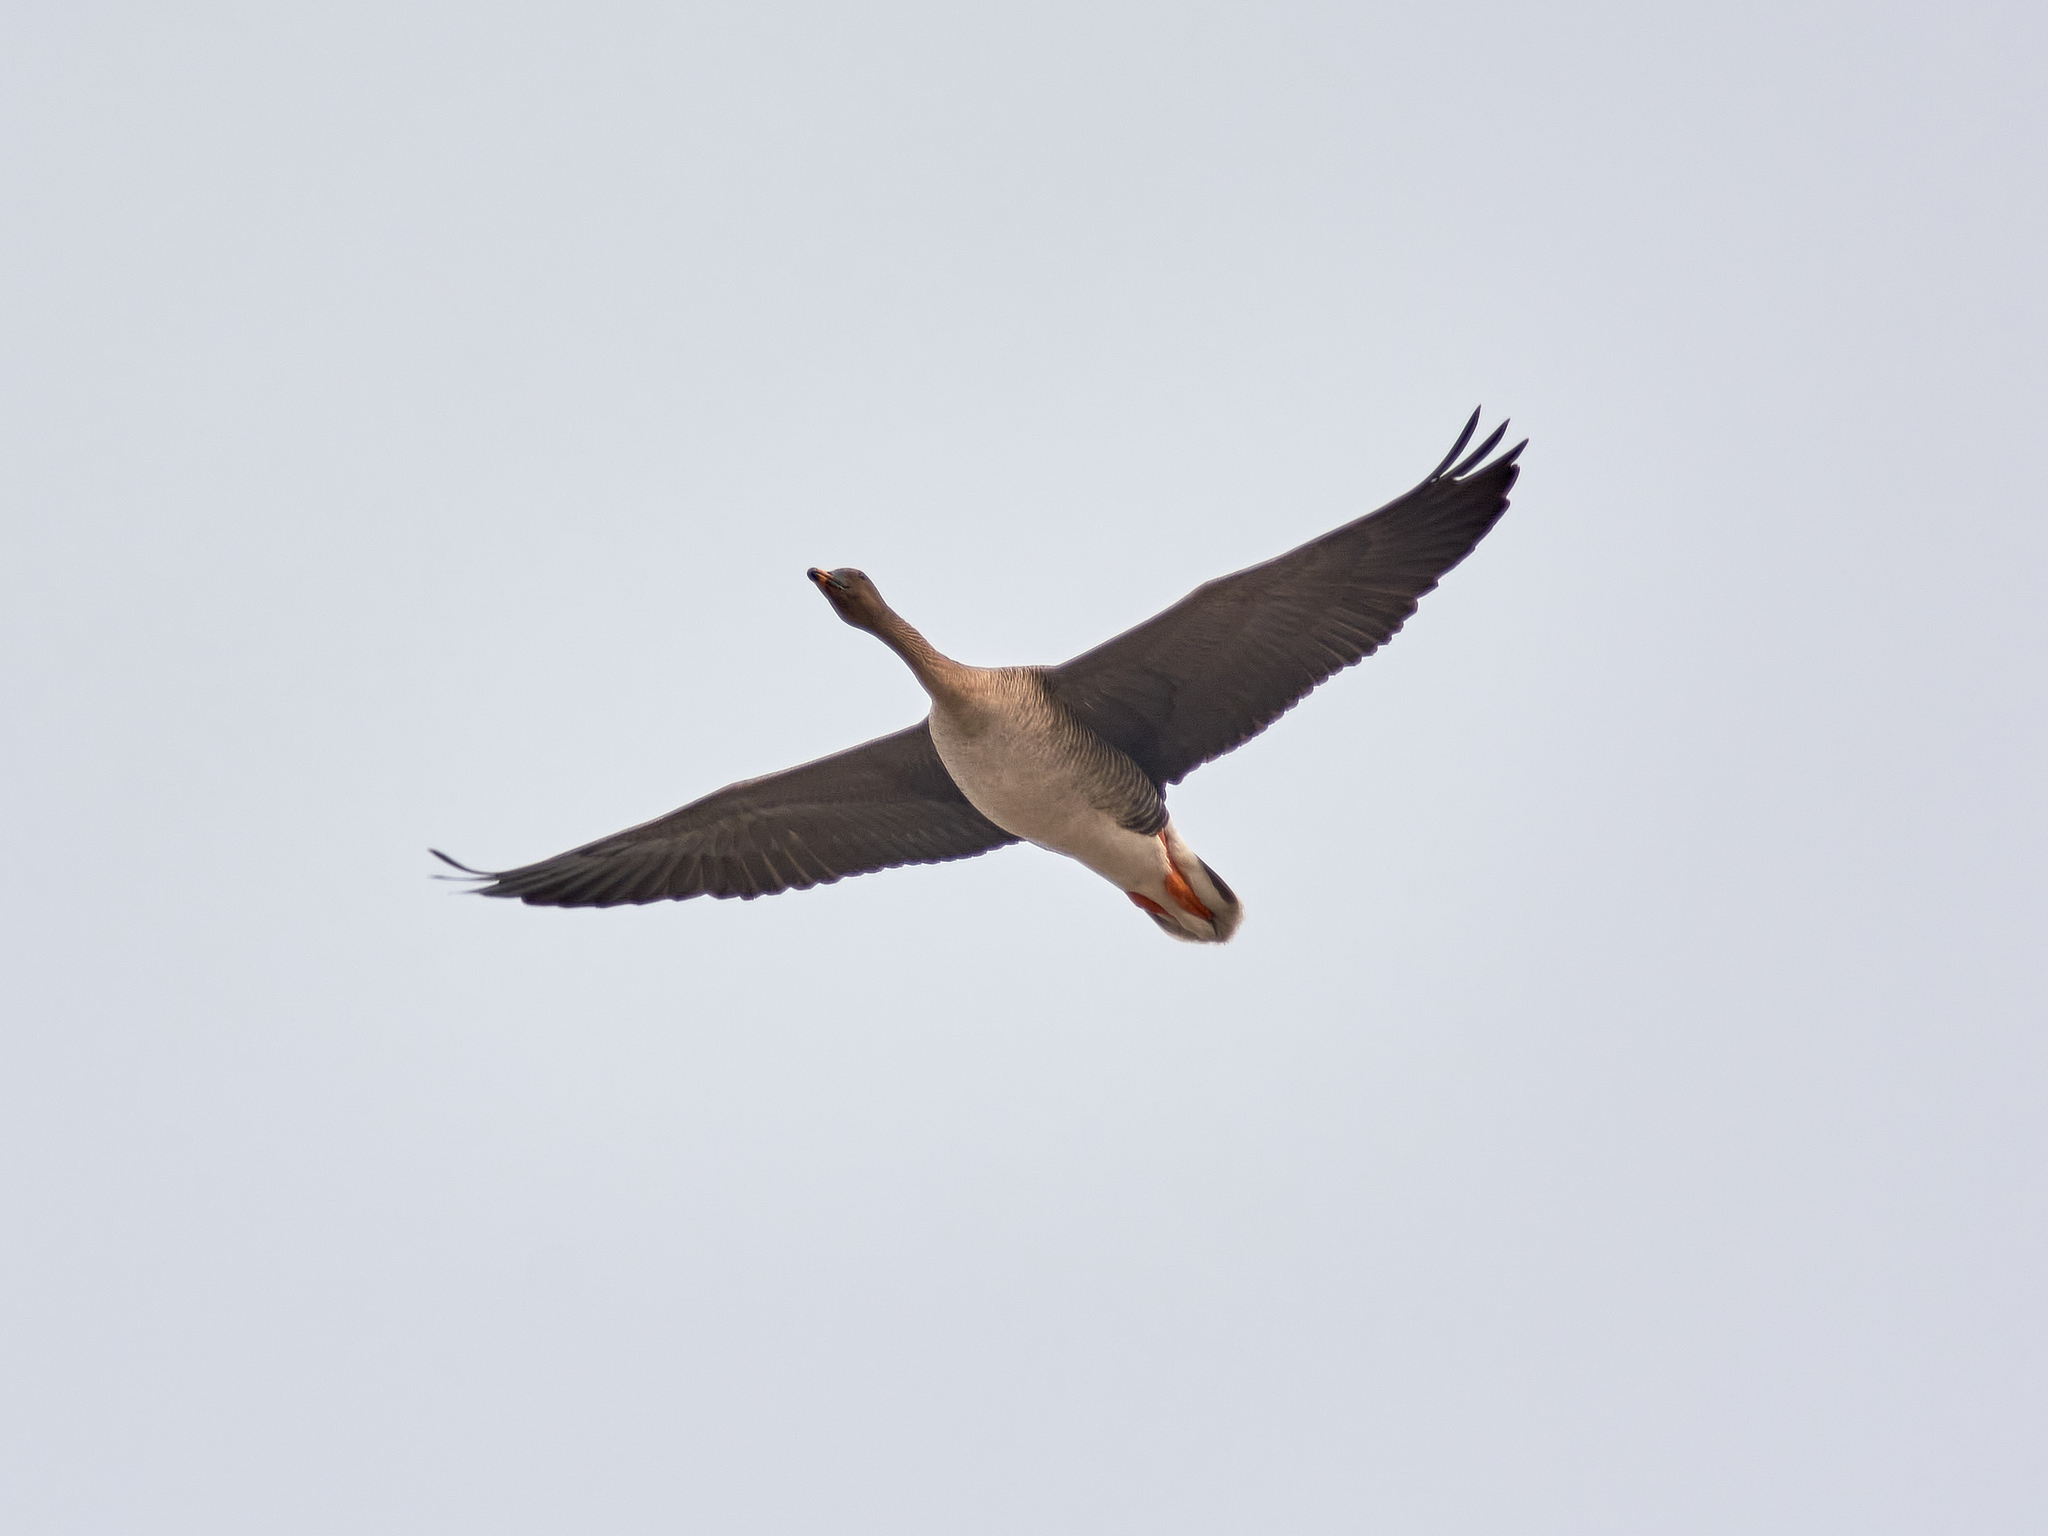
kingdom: Animalia
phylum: Chordata
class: Aves
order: Anseriformes
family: Anatidae
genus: Anser
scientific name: Anser fabalis
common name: Bean goose
